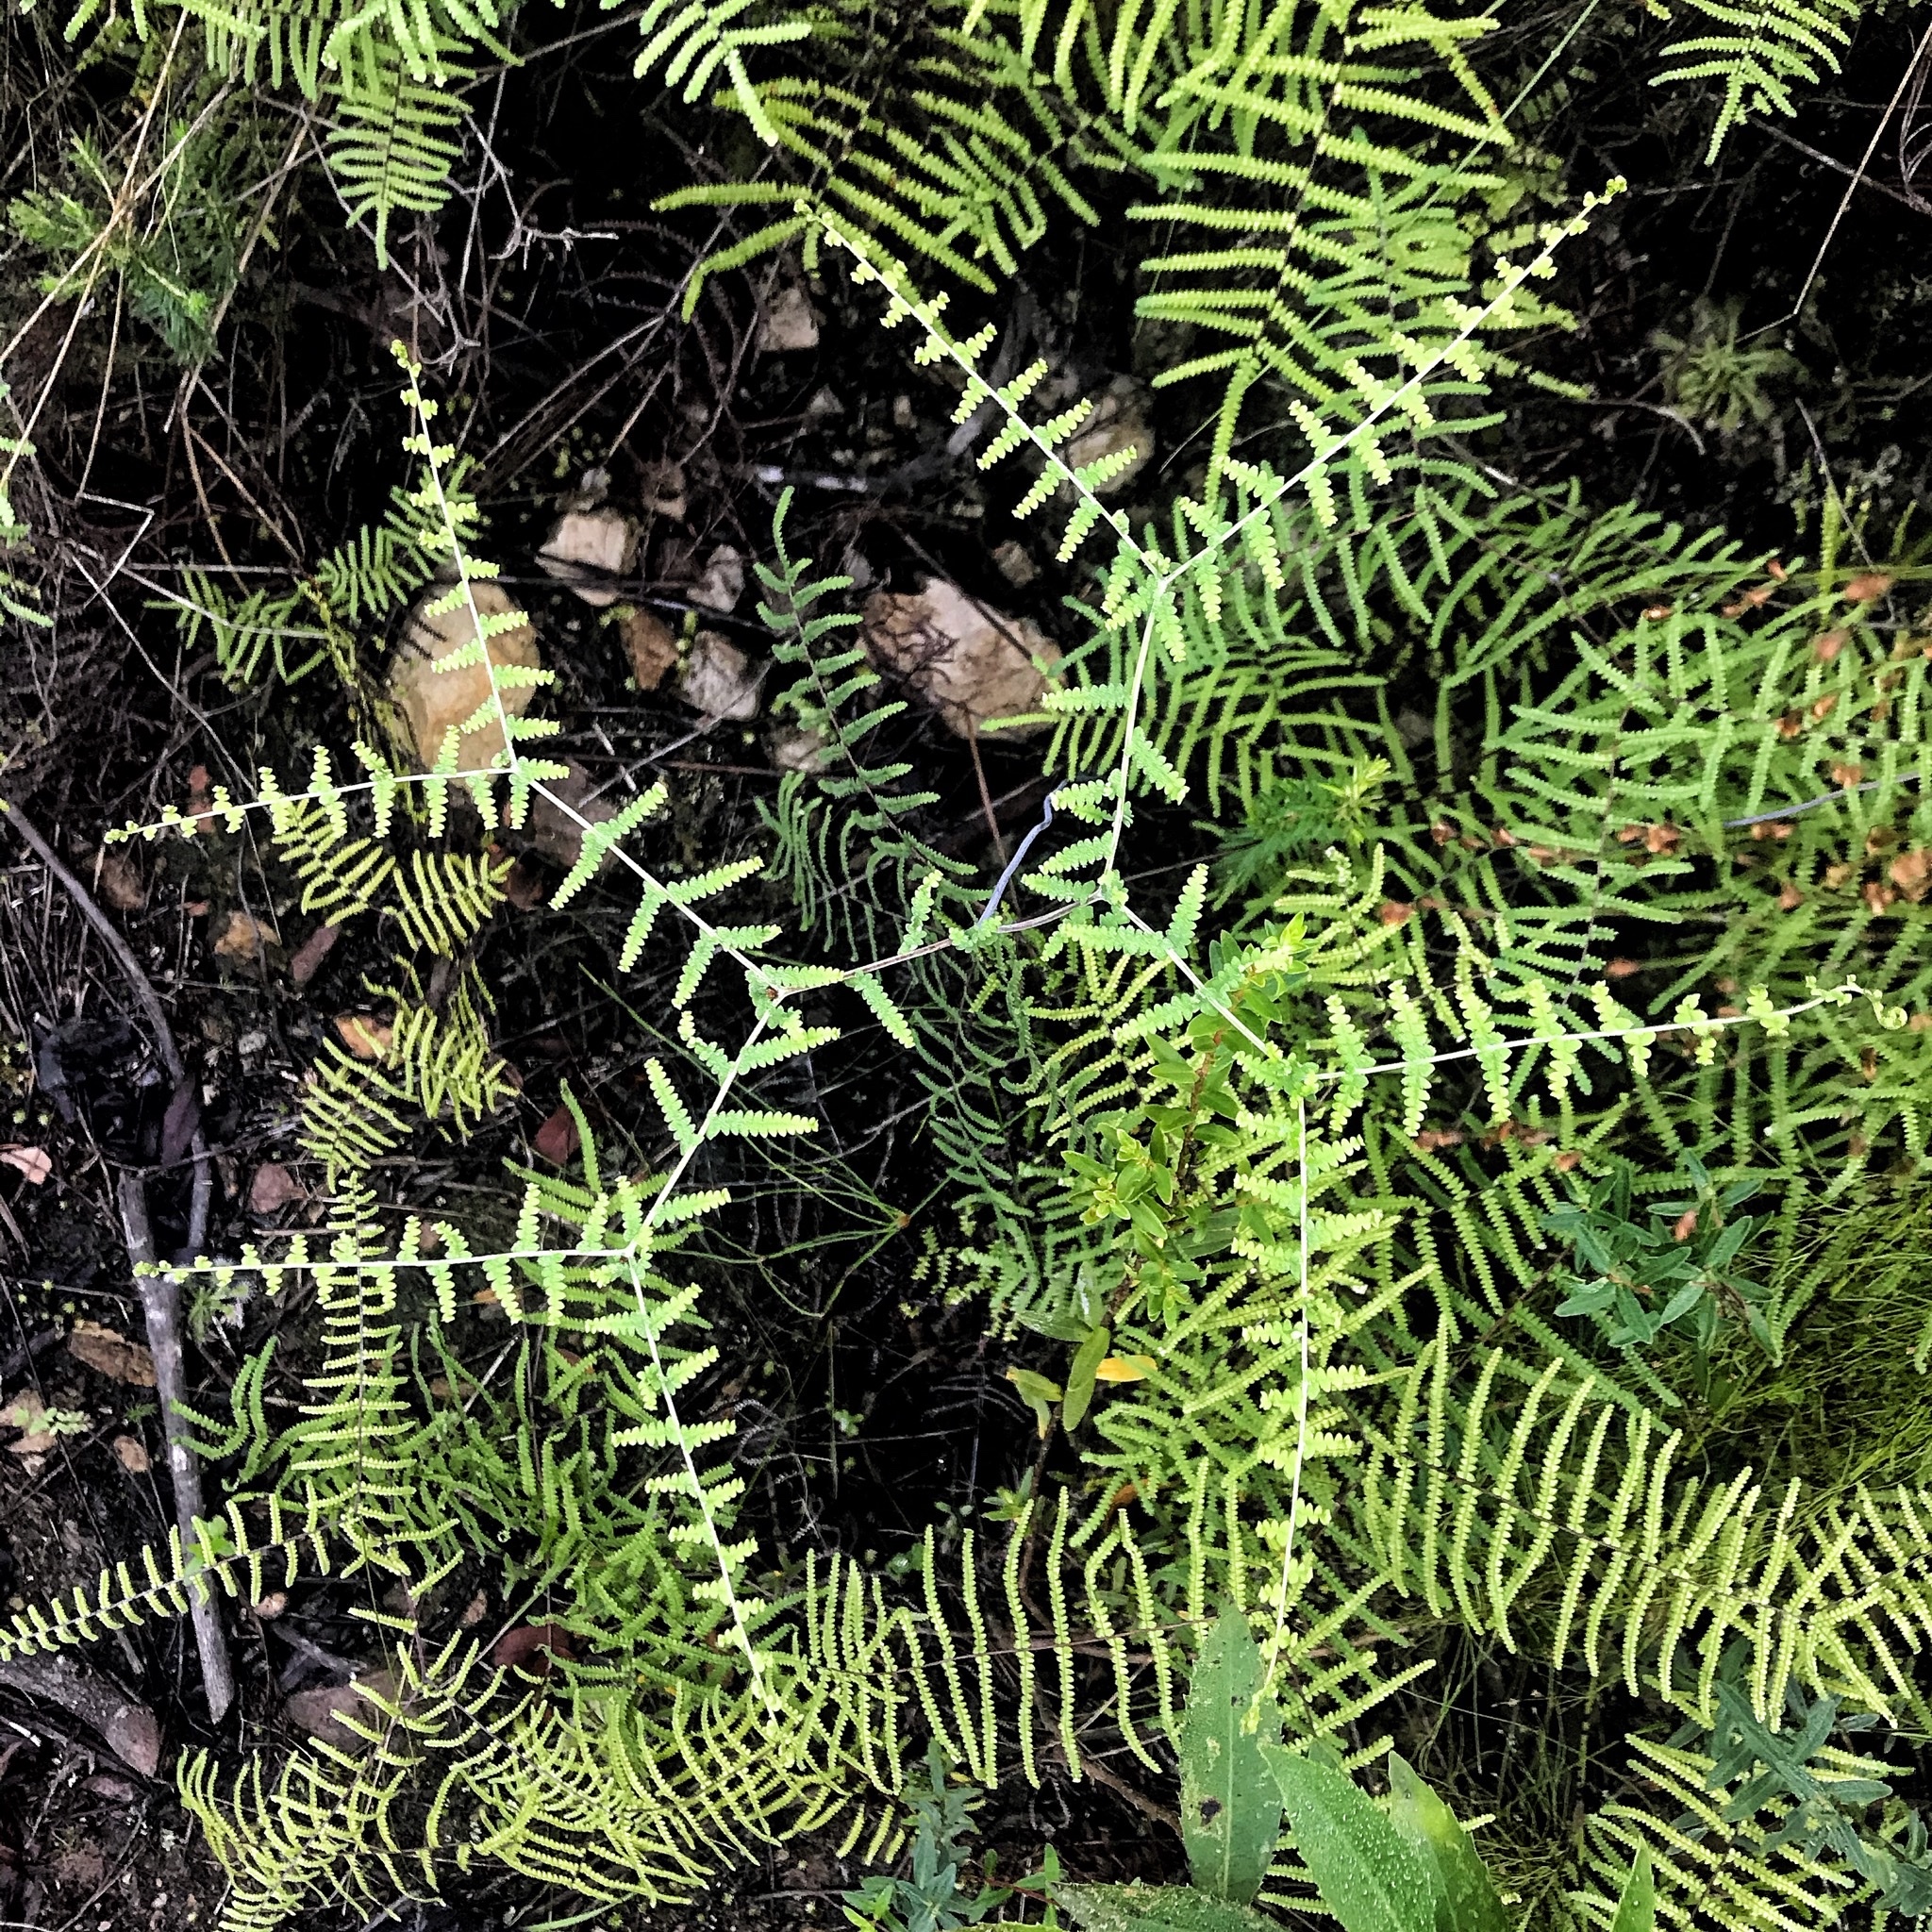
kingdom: Plantae
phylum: Tracheophyta
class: Polypodiopsida
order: Gleicheniales
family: Gleicheniaceae
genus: Gleichenia
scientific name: Gleichenia polypodioides
